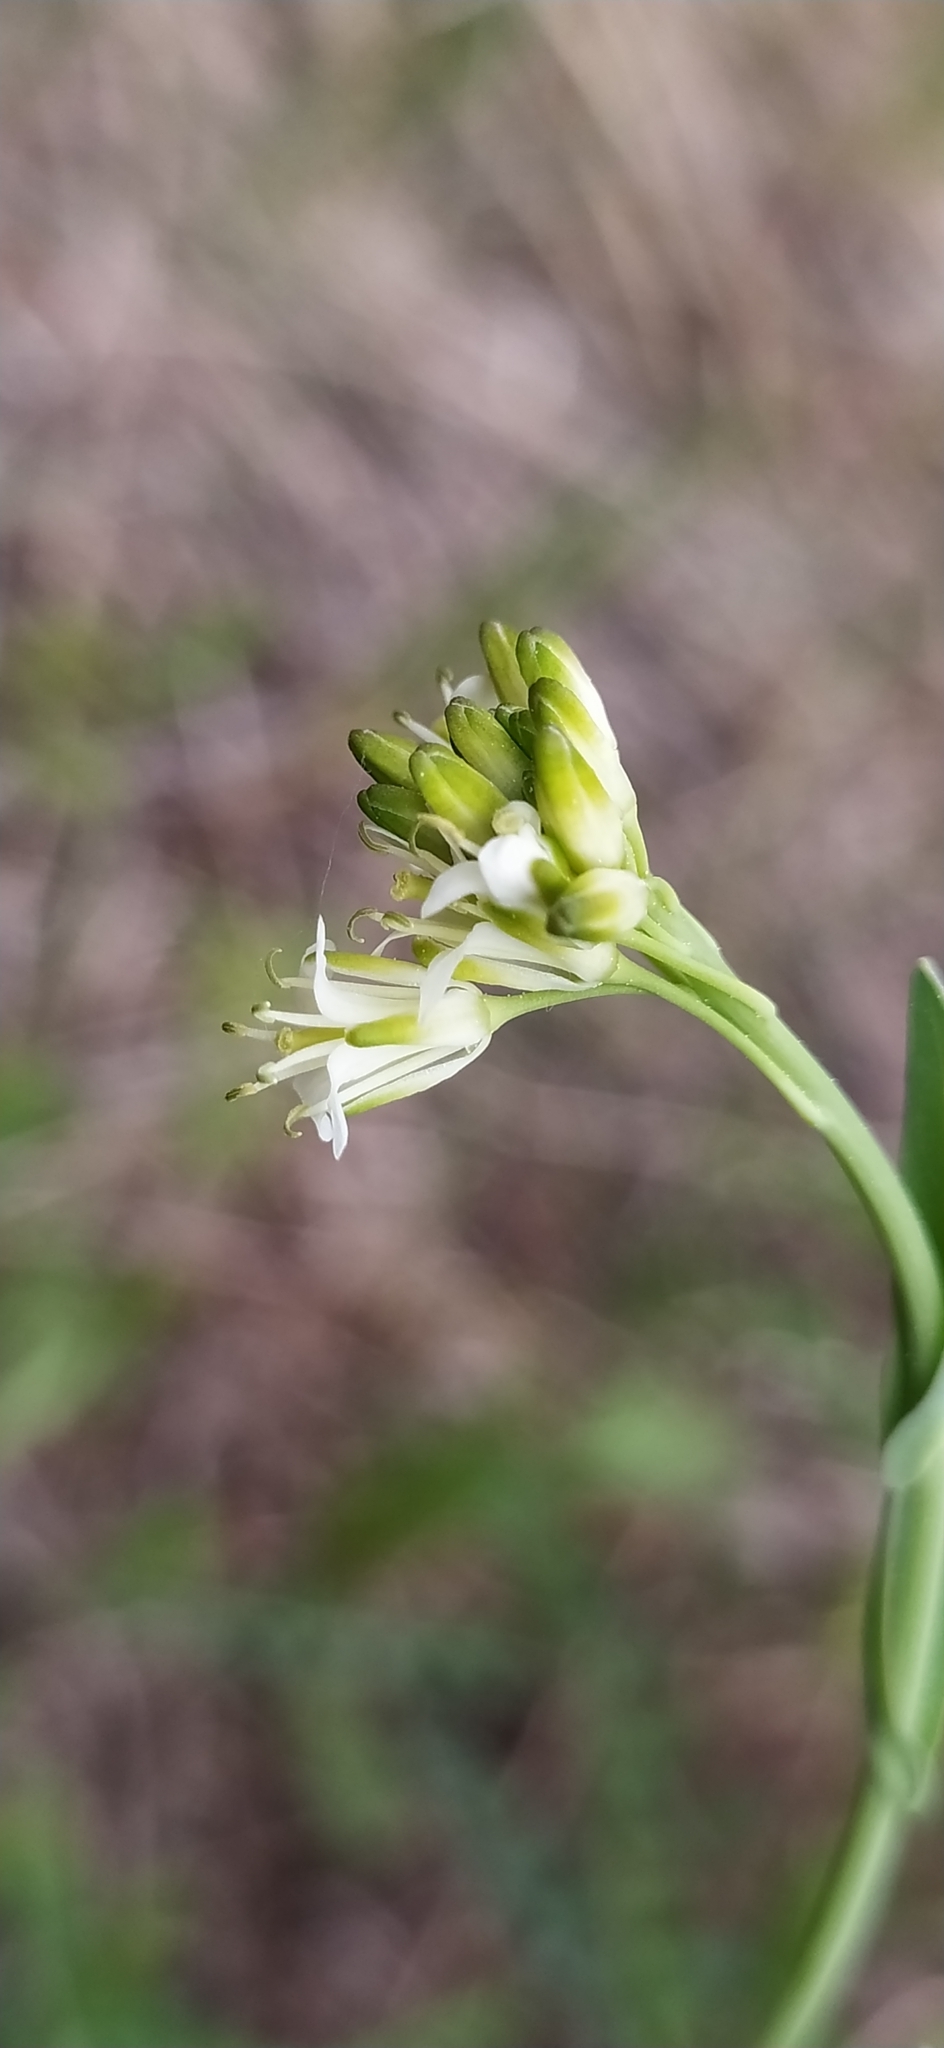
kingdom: Plantae
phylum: Tracheophyta
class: Magnoliopsida
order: Brassicales
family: Brassicaceae
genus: Turritis
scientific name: Turritis glabra
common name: Tower rockcress
